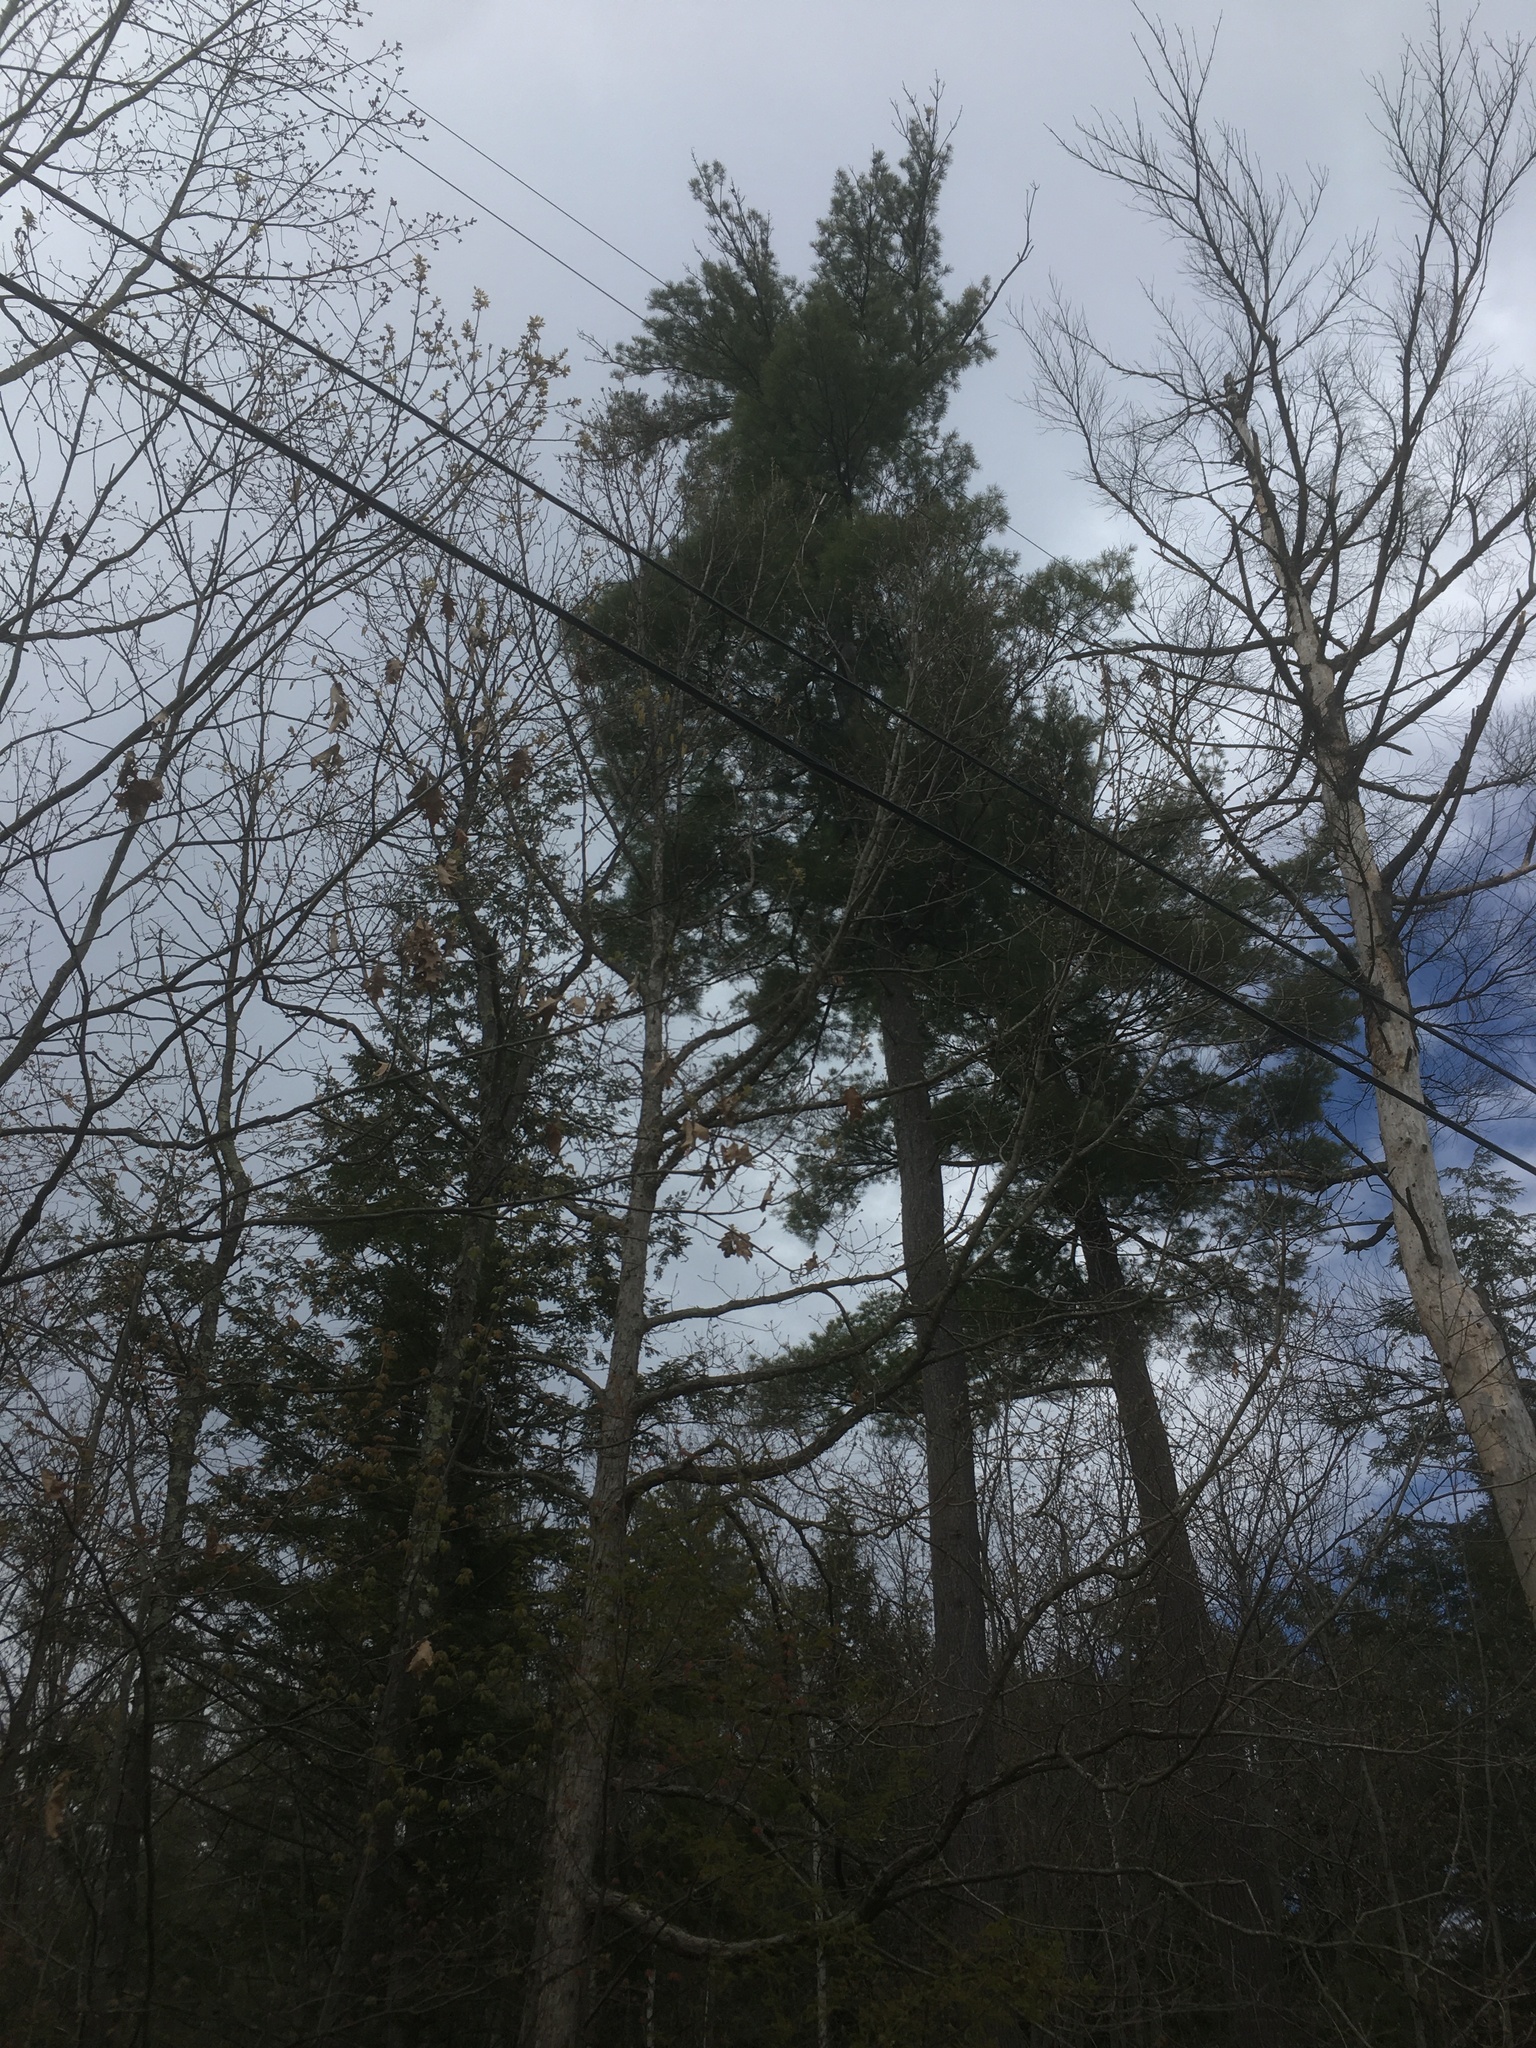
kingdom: Plantae
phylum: Tracheophyta
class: Pinopsida
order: Pinales
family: Pinaceae
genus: Pinus
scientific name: Pinus strobus
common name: Weymouth pine
